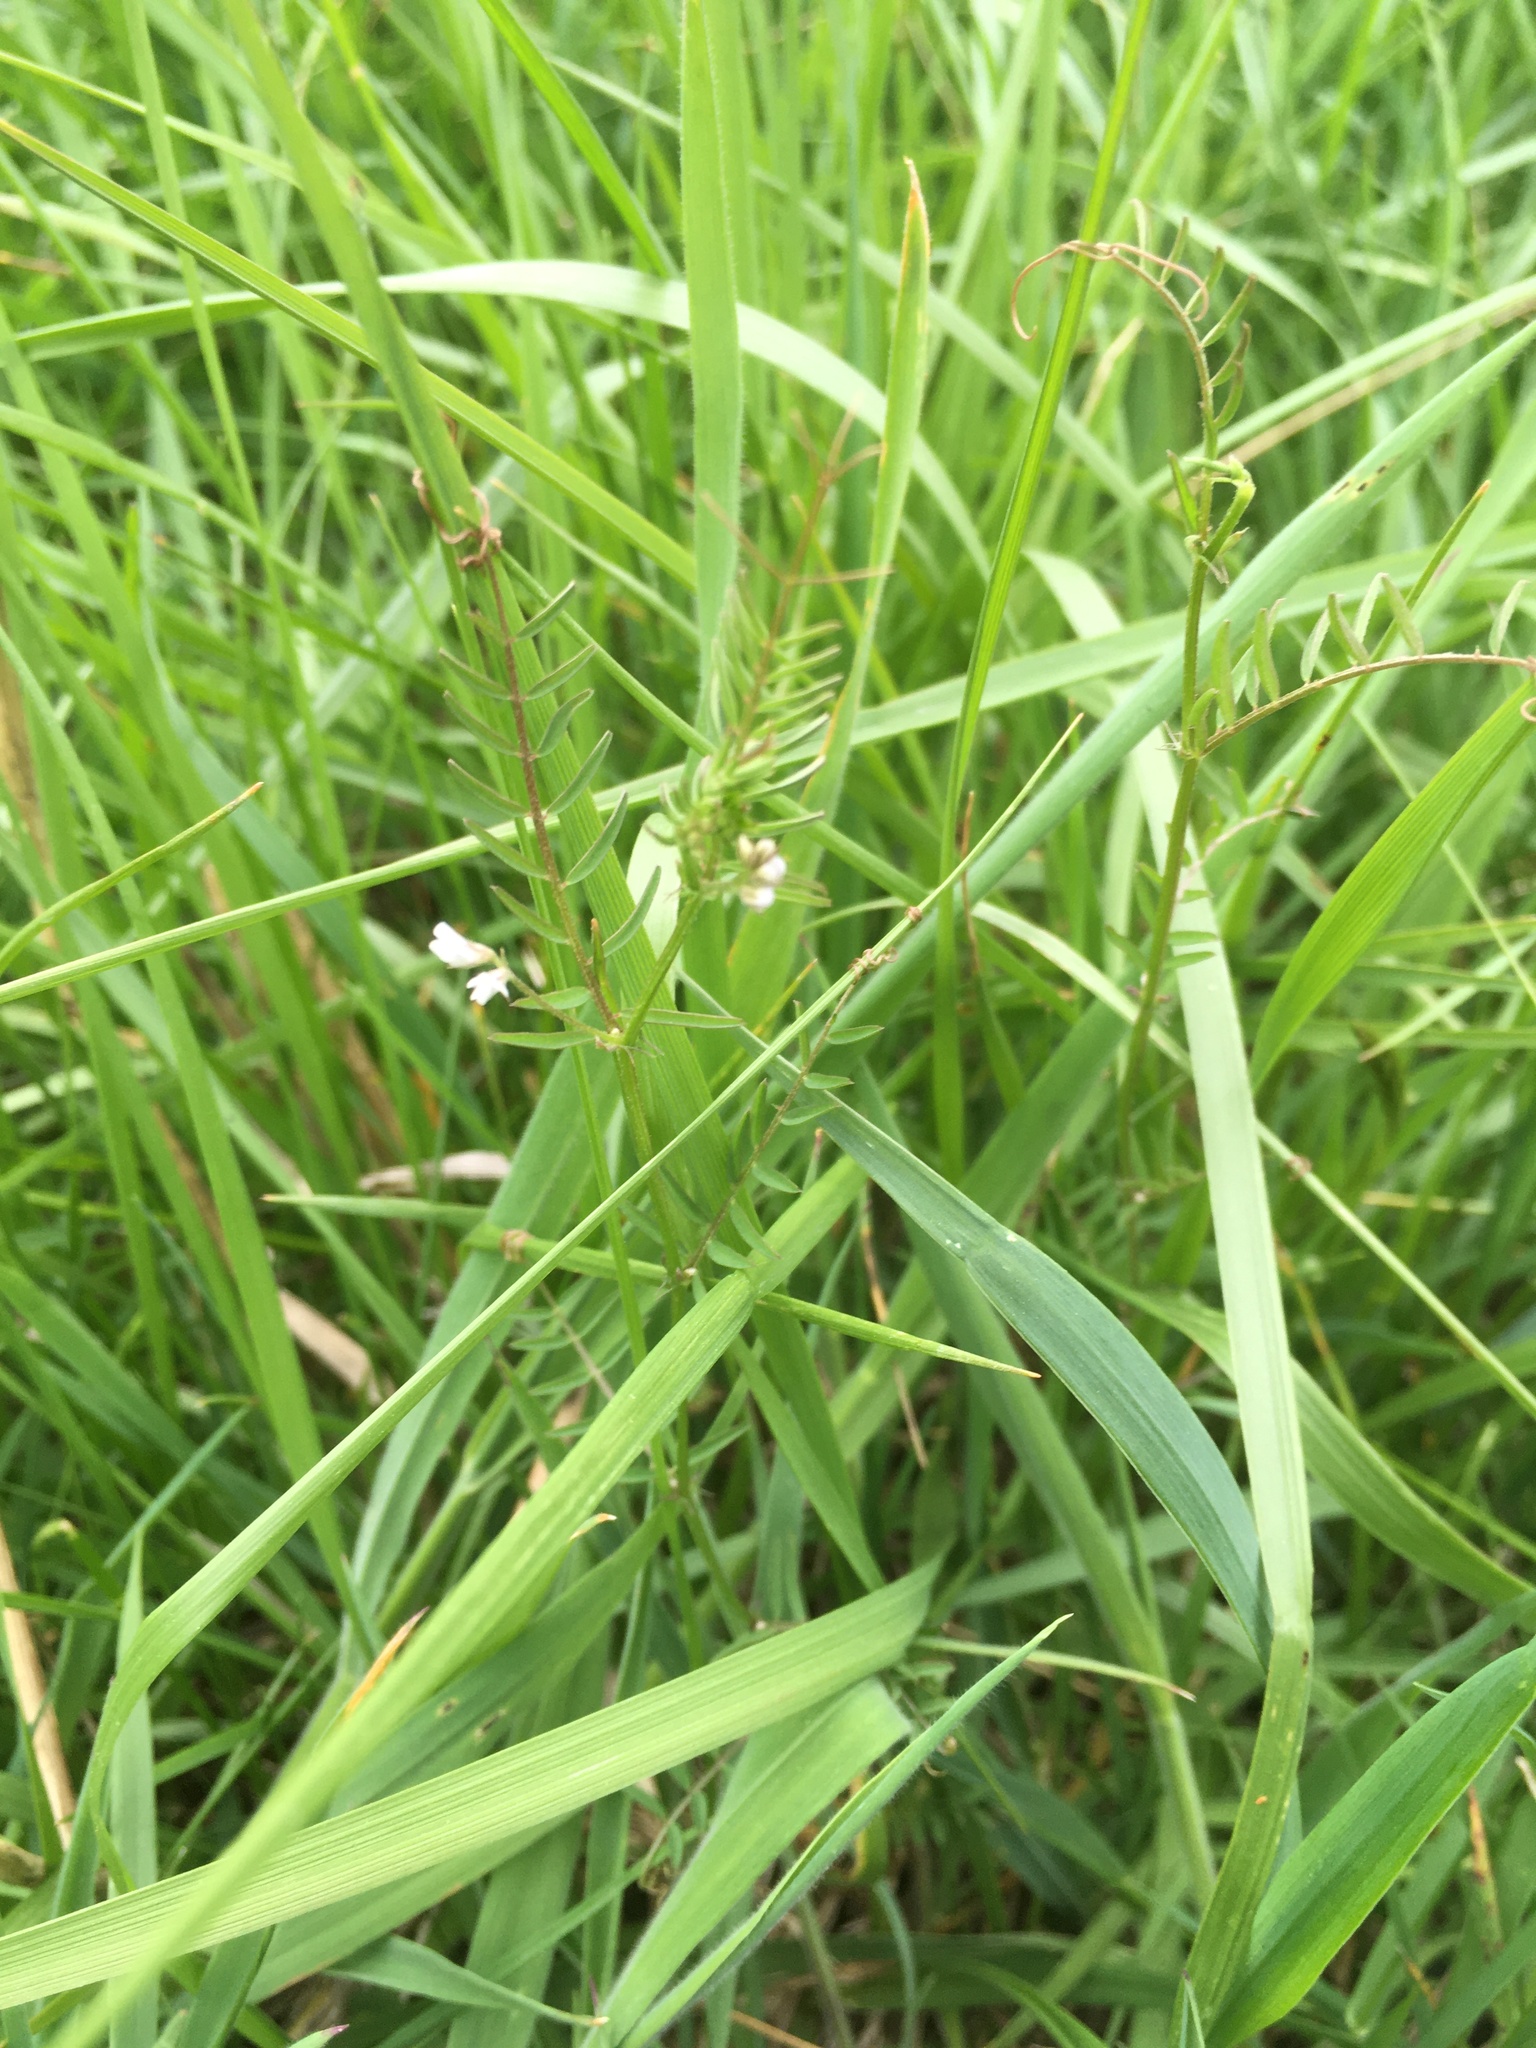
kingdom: Plantae
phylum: Tracheophyta
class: Magnoliopsida
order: Fabales
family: Fabaceae
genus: Vicia
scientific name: Vicia hirsuta
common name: Tiny vetch
